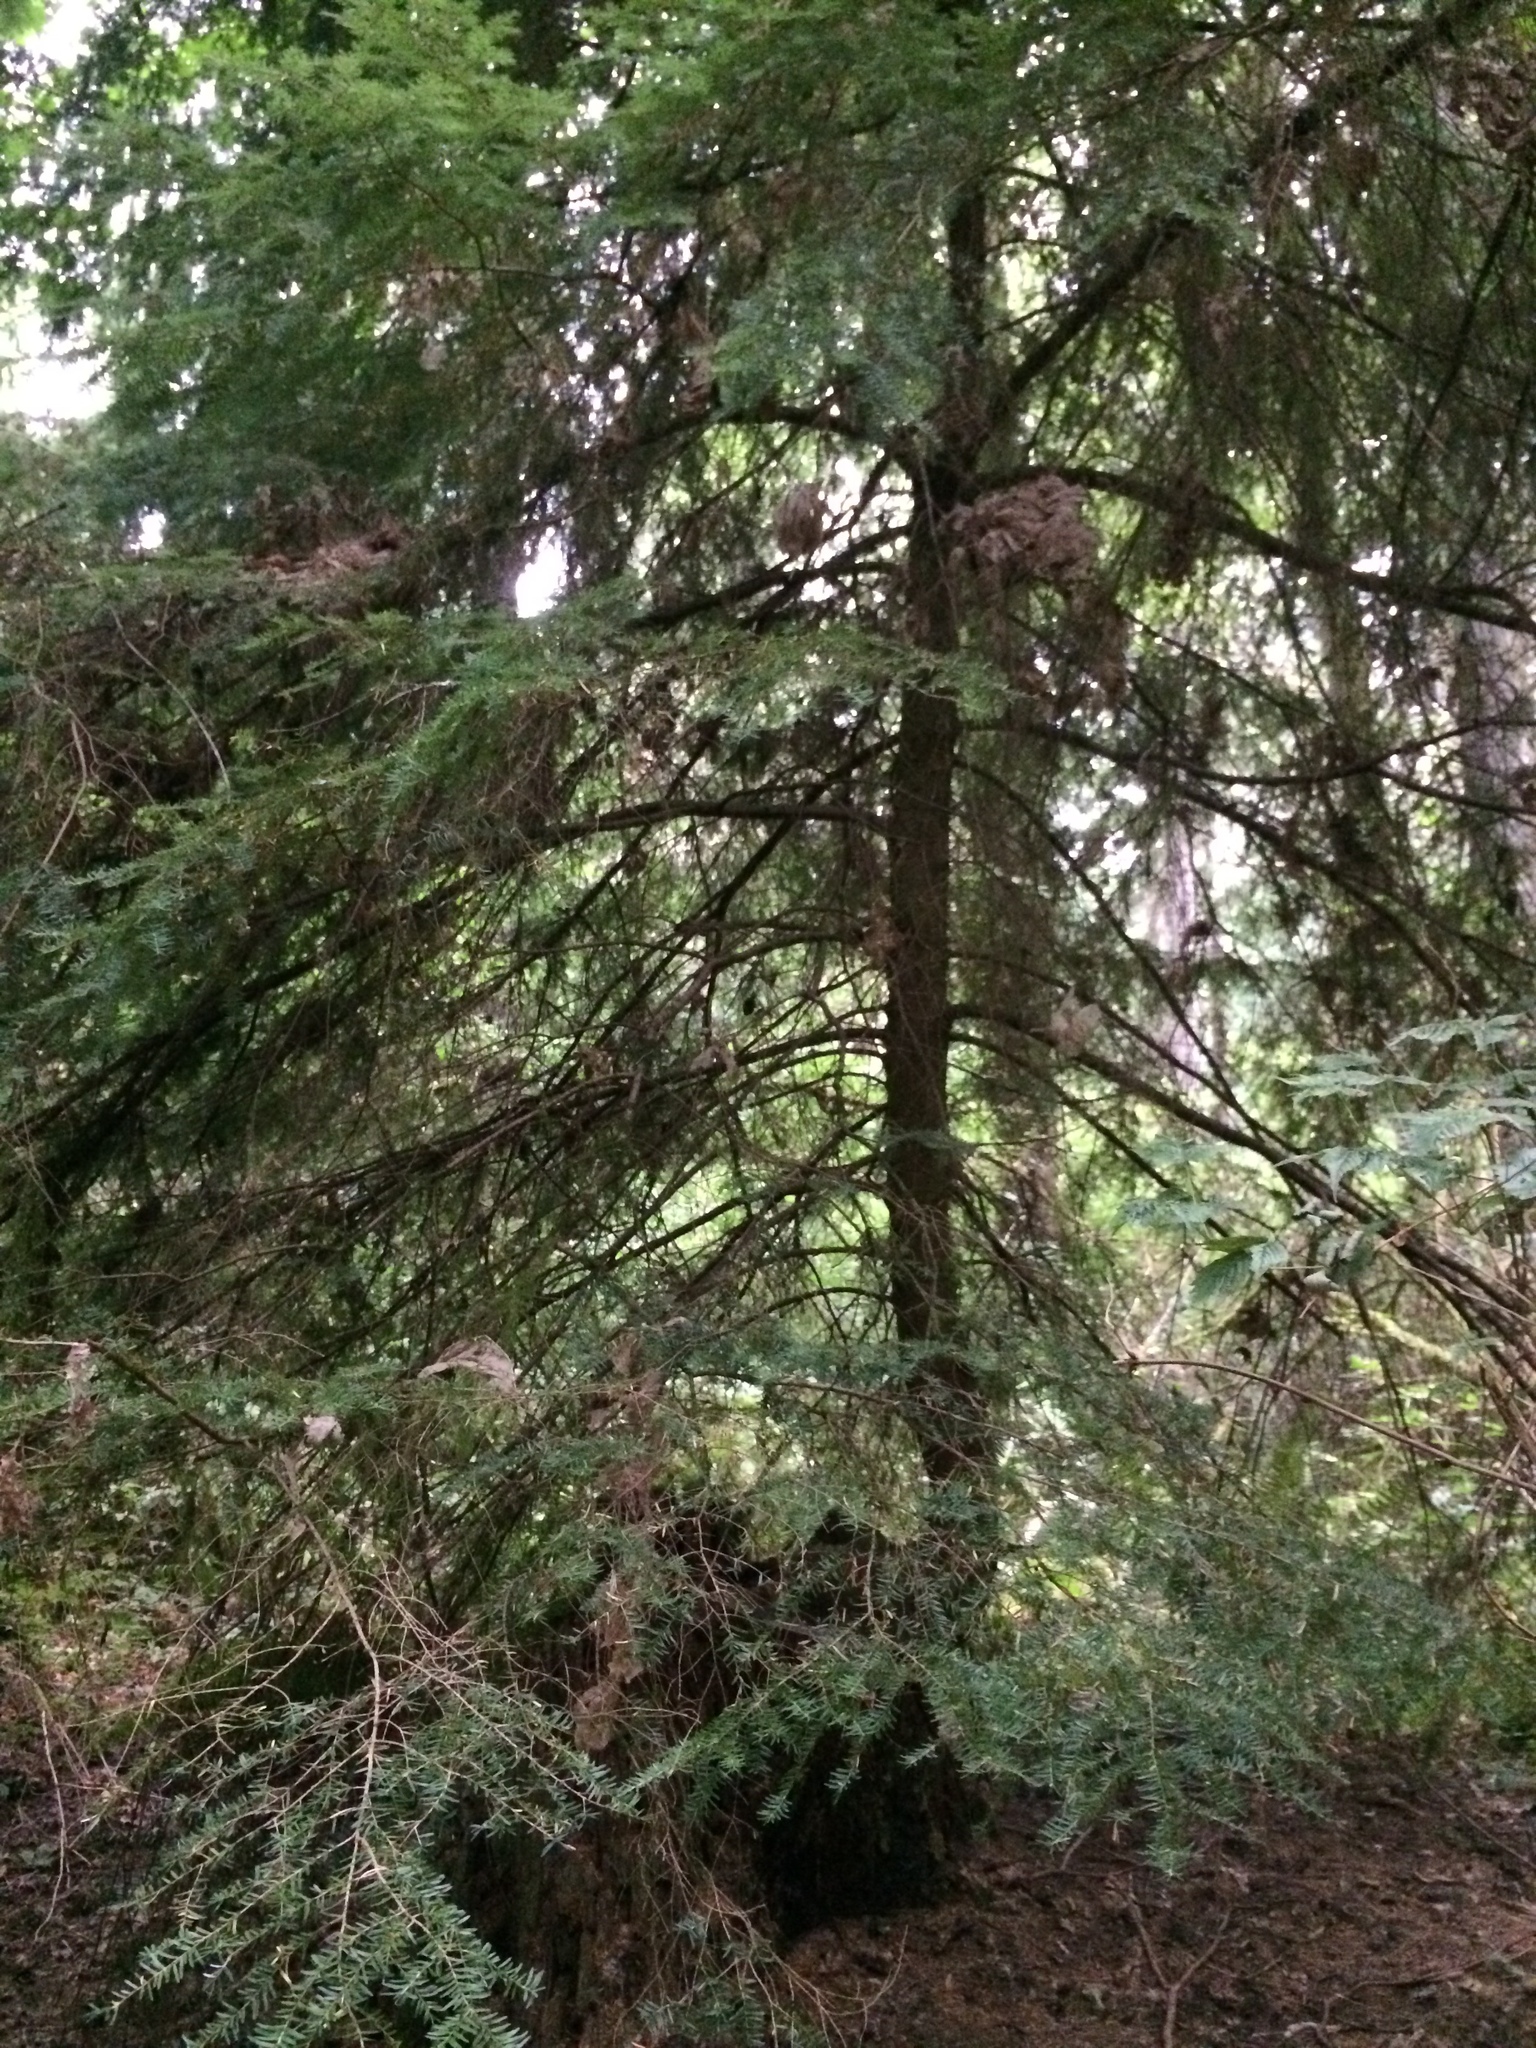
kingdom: Plantae
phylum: Tracheophyta
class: Pinopsida
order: Pinales
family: Pinaceae
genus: Tsuga
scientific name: Tsuga heterophylla
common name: Western hemlock
